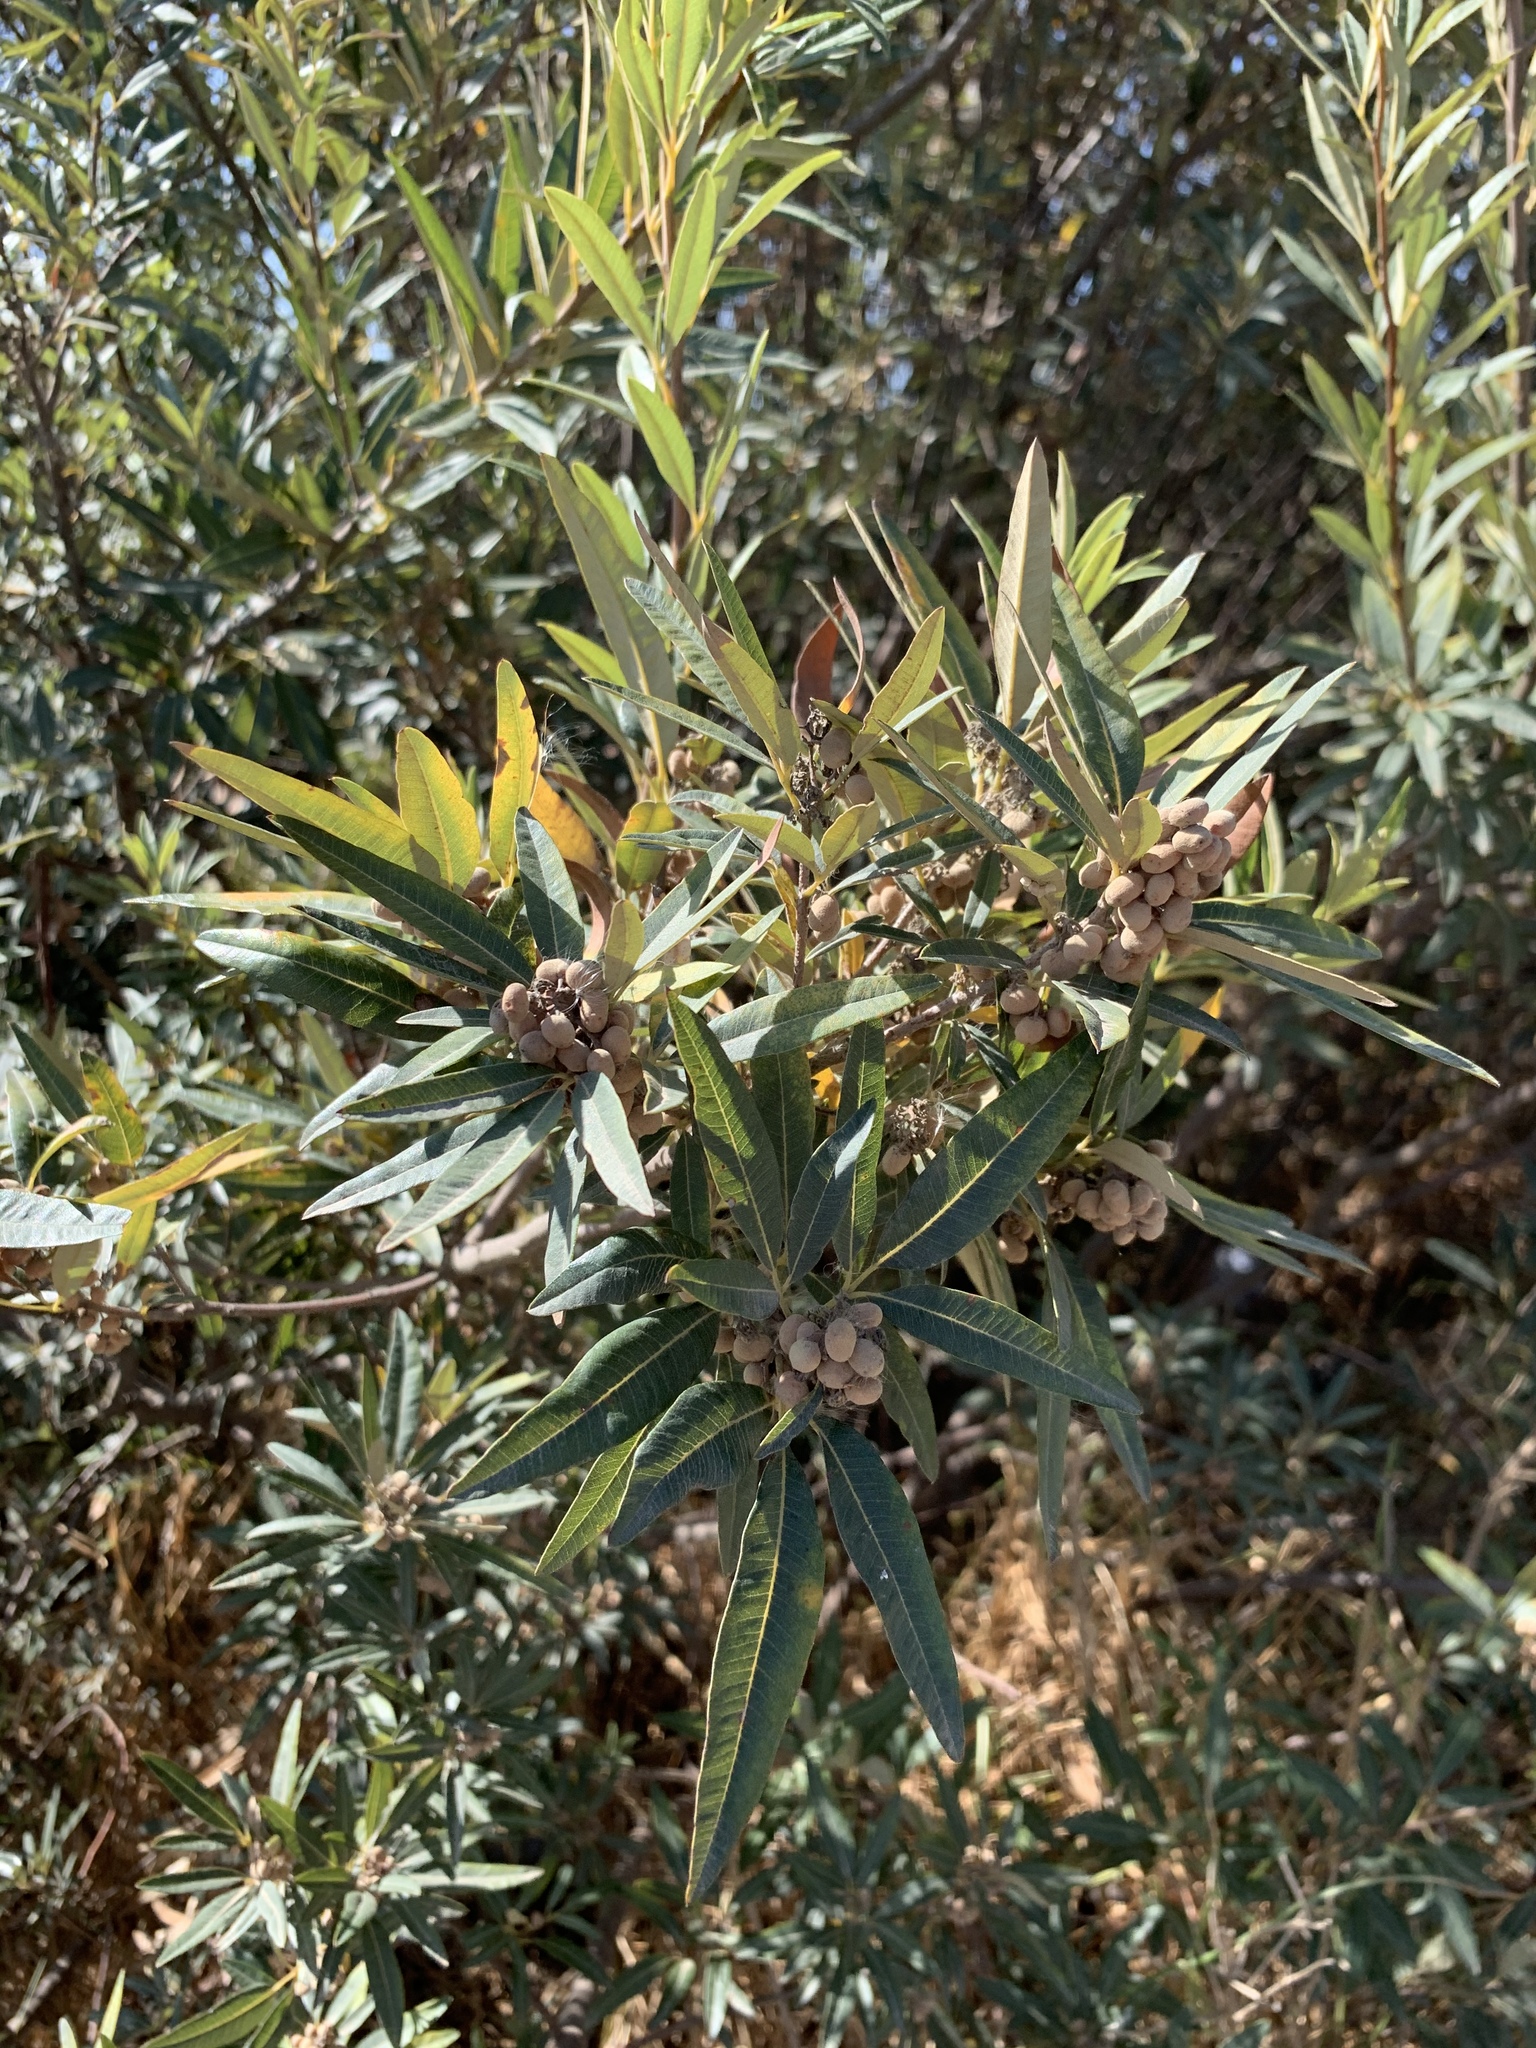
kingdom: Plantae
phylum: Tracheophyta
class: Magnoliopsida
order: Sapindales
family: Anacardiaceae
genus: Searsia
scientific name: Searsia angustifolia
